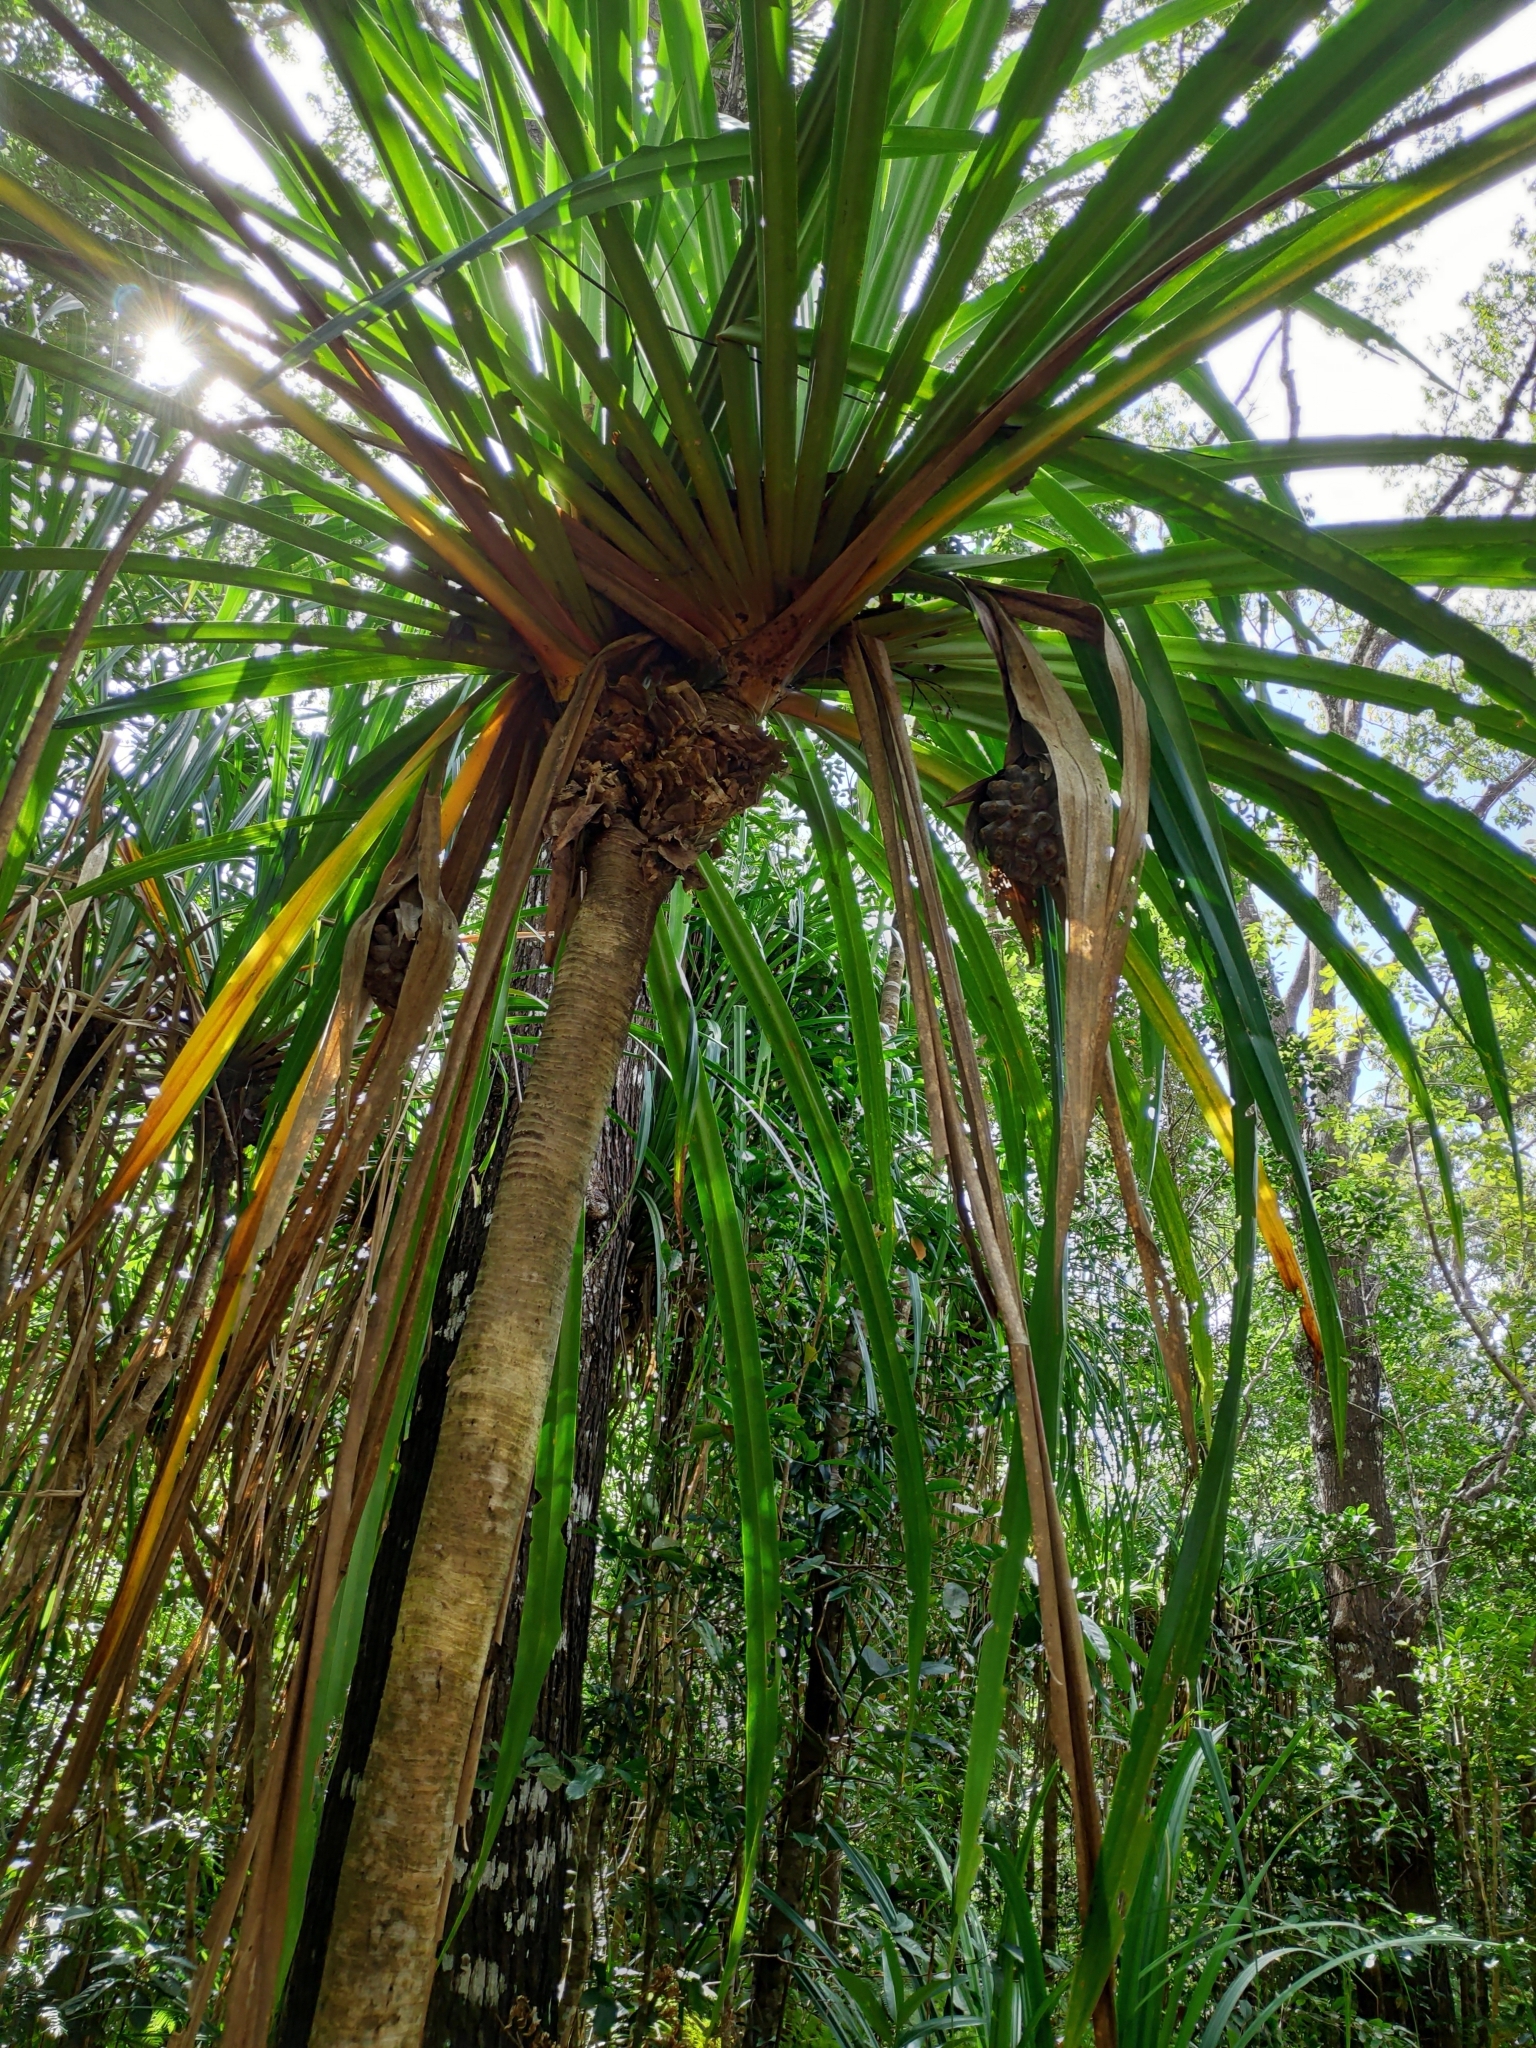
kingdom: Plantae
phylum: Tracheophyta
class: Liliopsida
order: Pandanales
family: Pandanaceae
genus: Pandanus
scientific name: Pandanus tectorius
